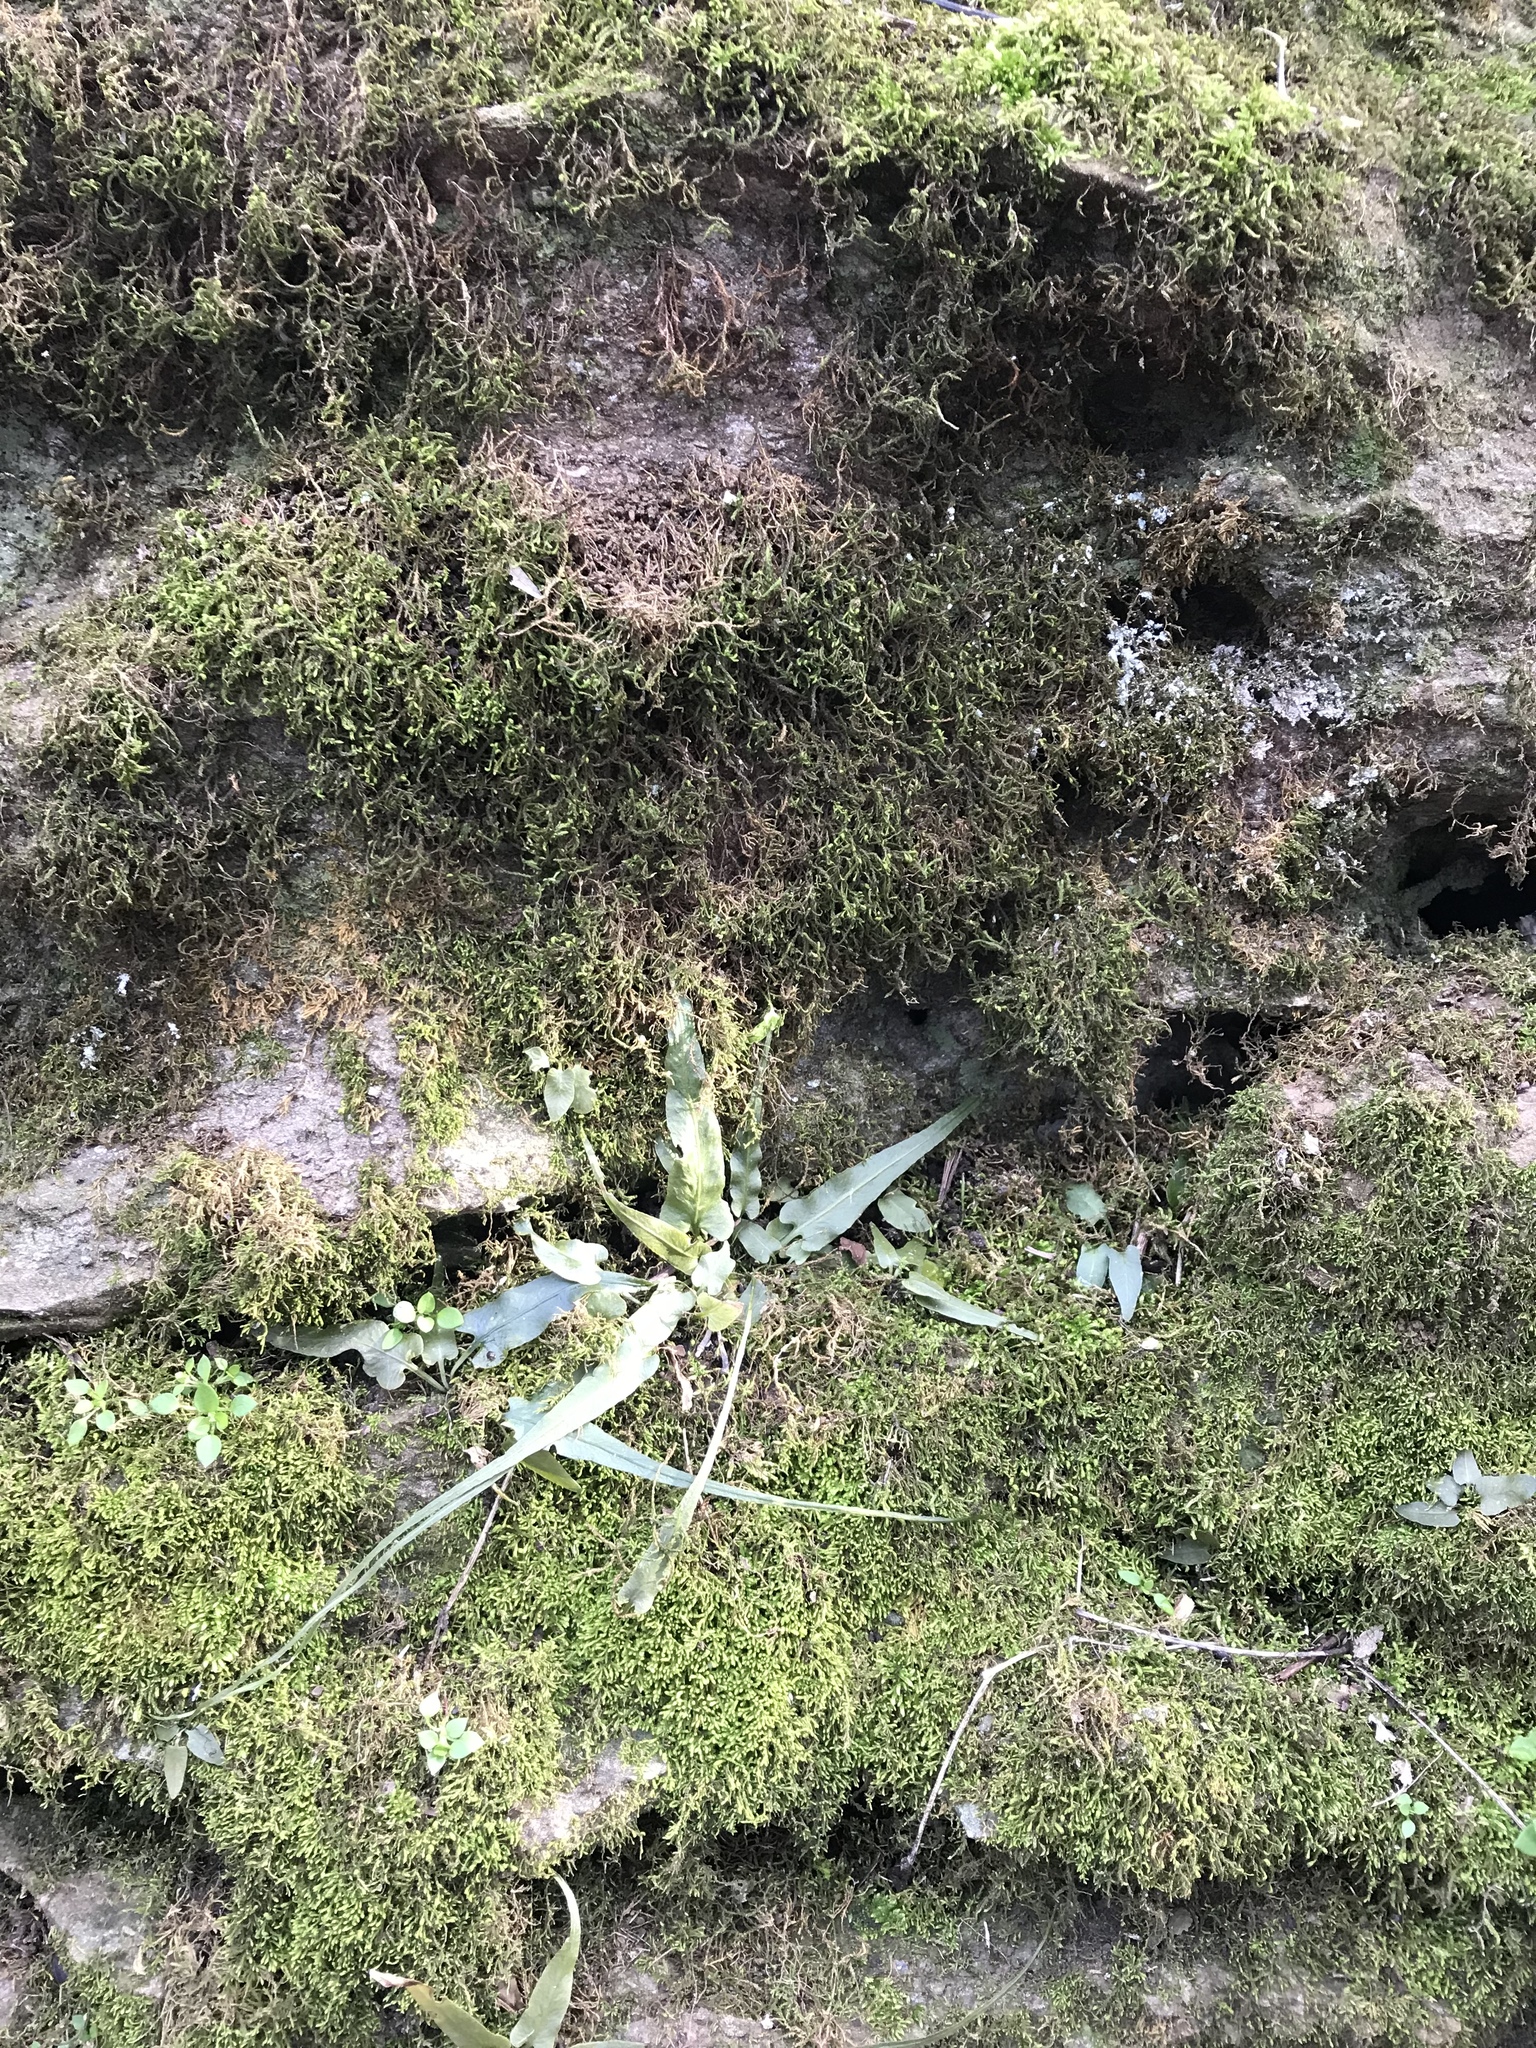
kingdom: Plantae
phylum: Tracheophyta
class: Polypodiopsida
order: Polypodiales
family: Aspleniaceae
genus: Asplenium
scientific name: Asplenium rhizophyllum
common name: Walking fern
